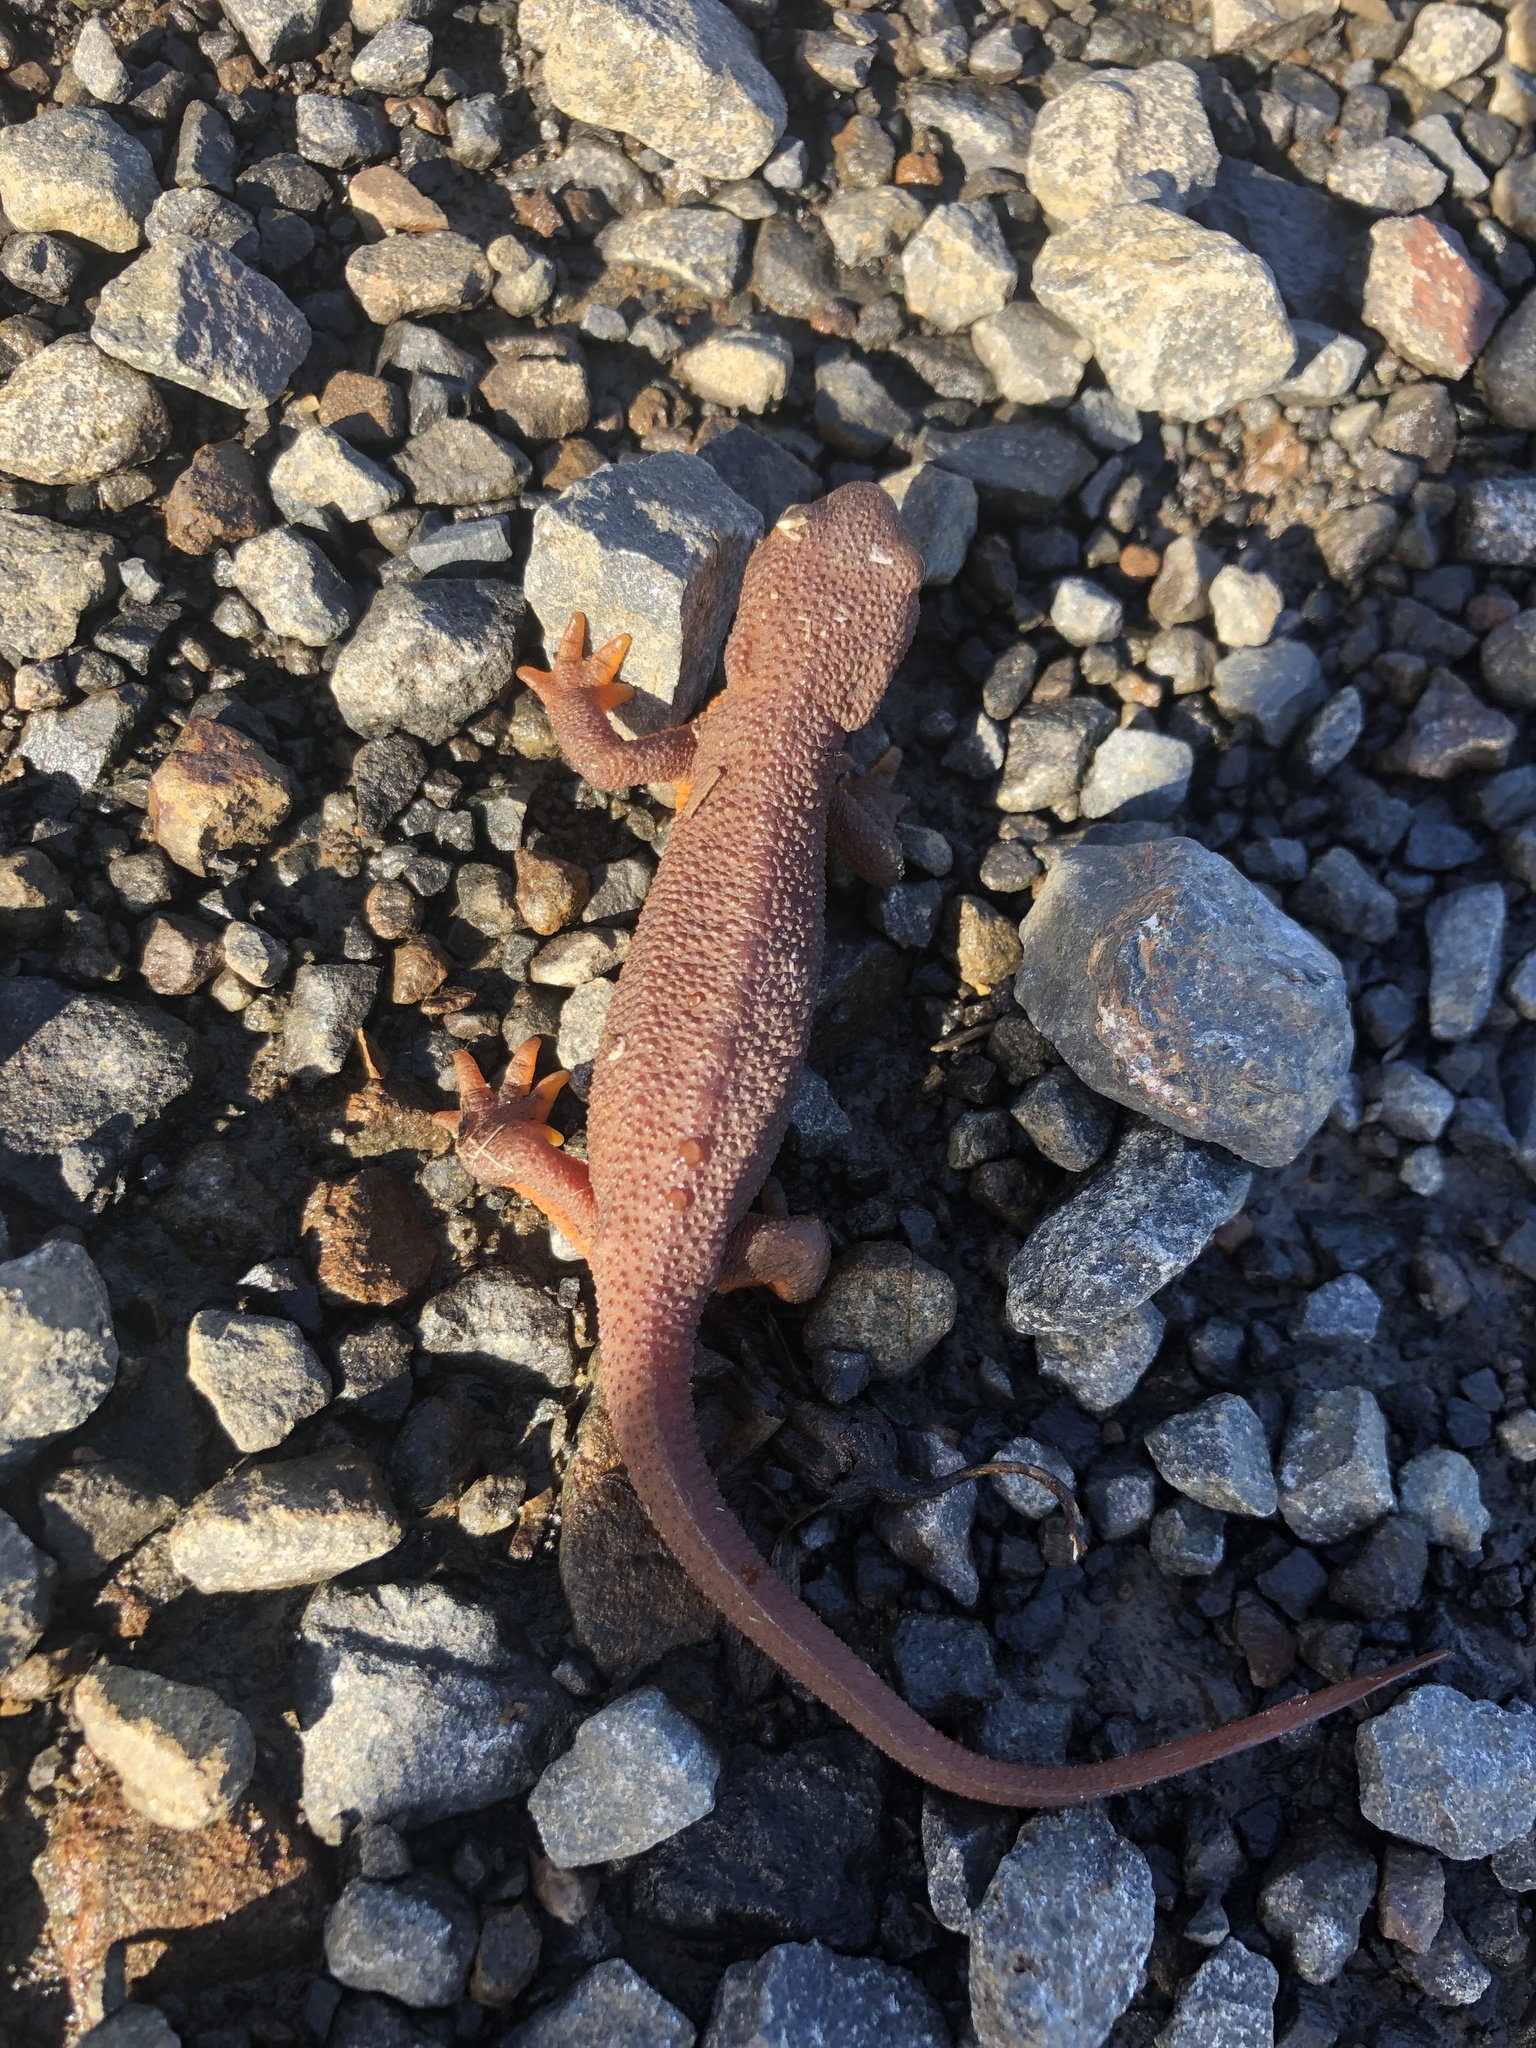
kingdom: Animalia
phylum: Chordata
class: Amphibia
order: Caudata
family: Salamandridae
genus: Taricha
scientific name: Taricha granulosa
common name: Roughskin newt
